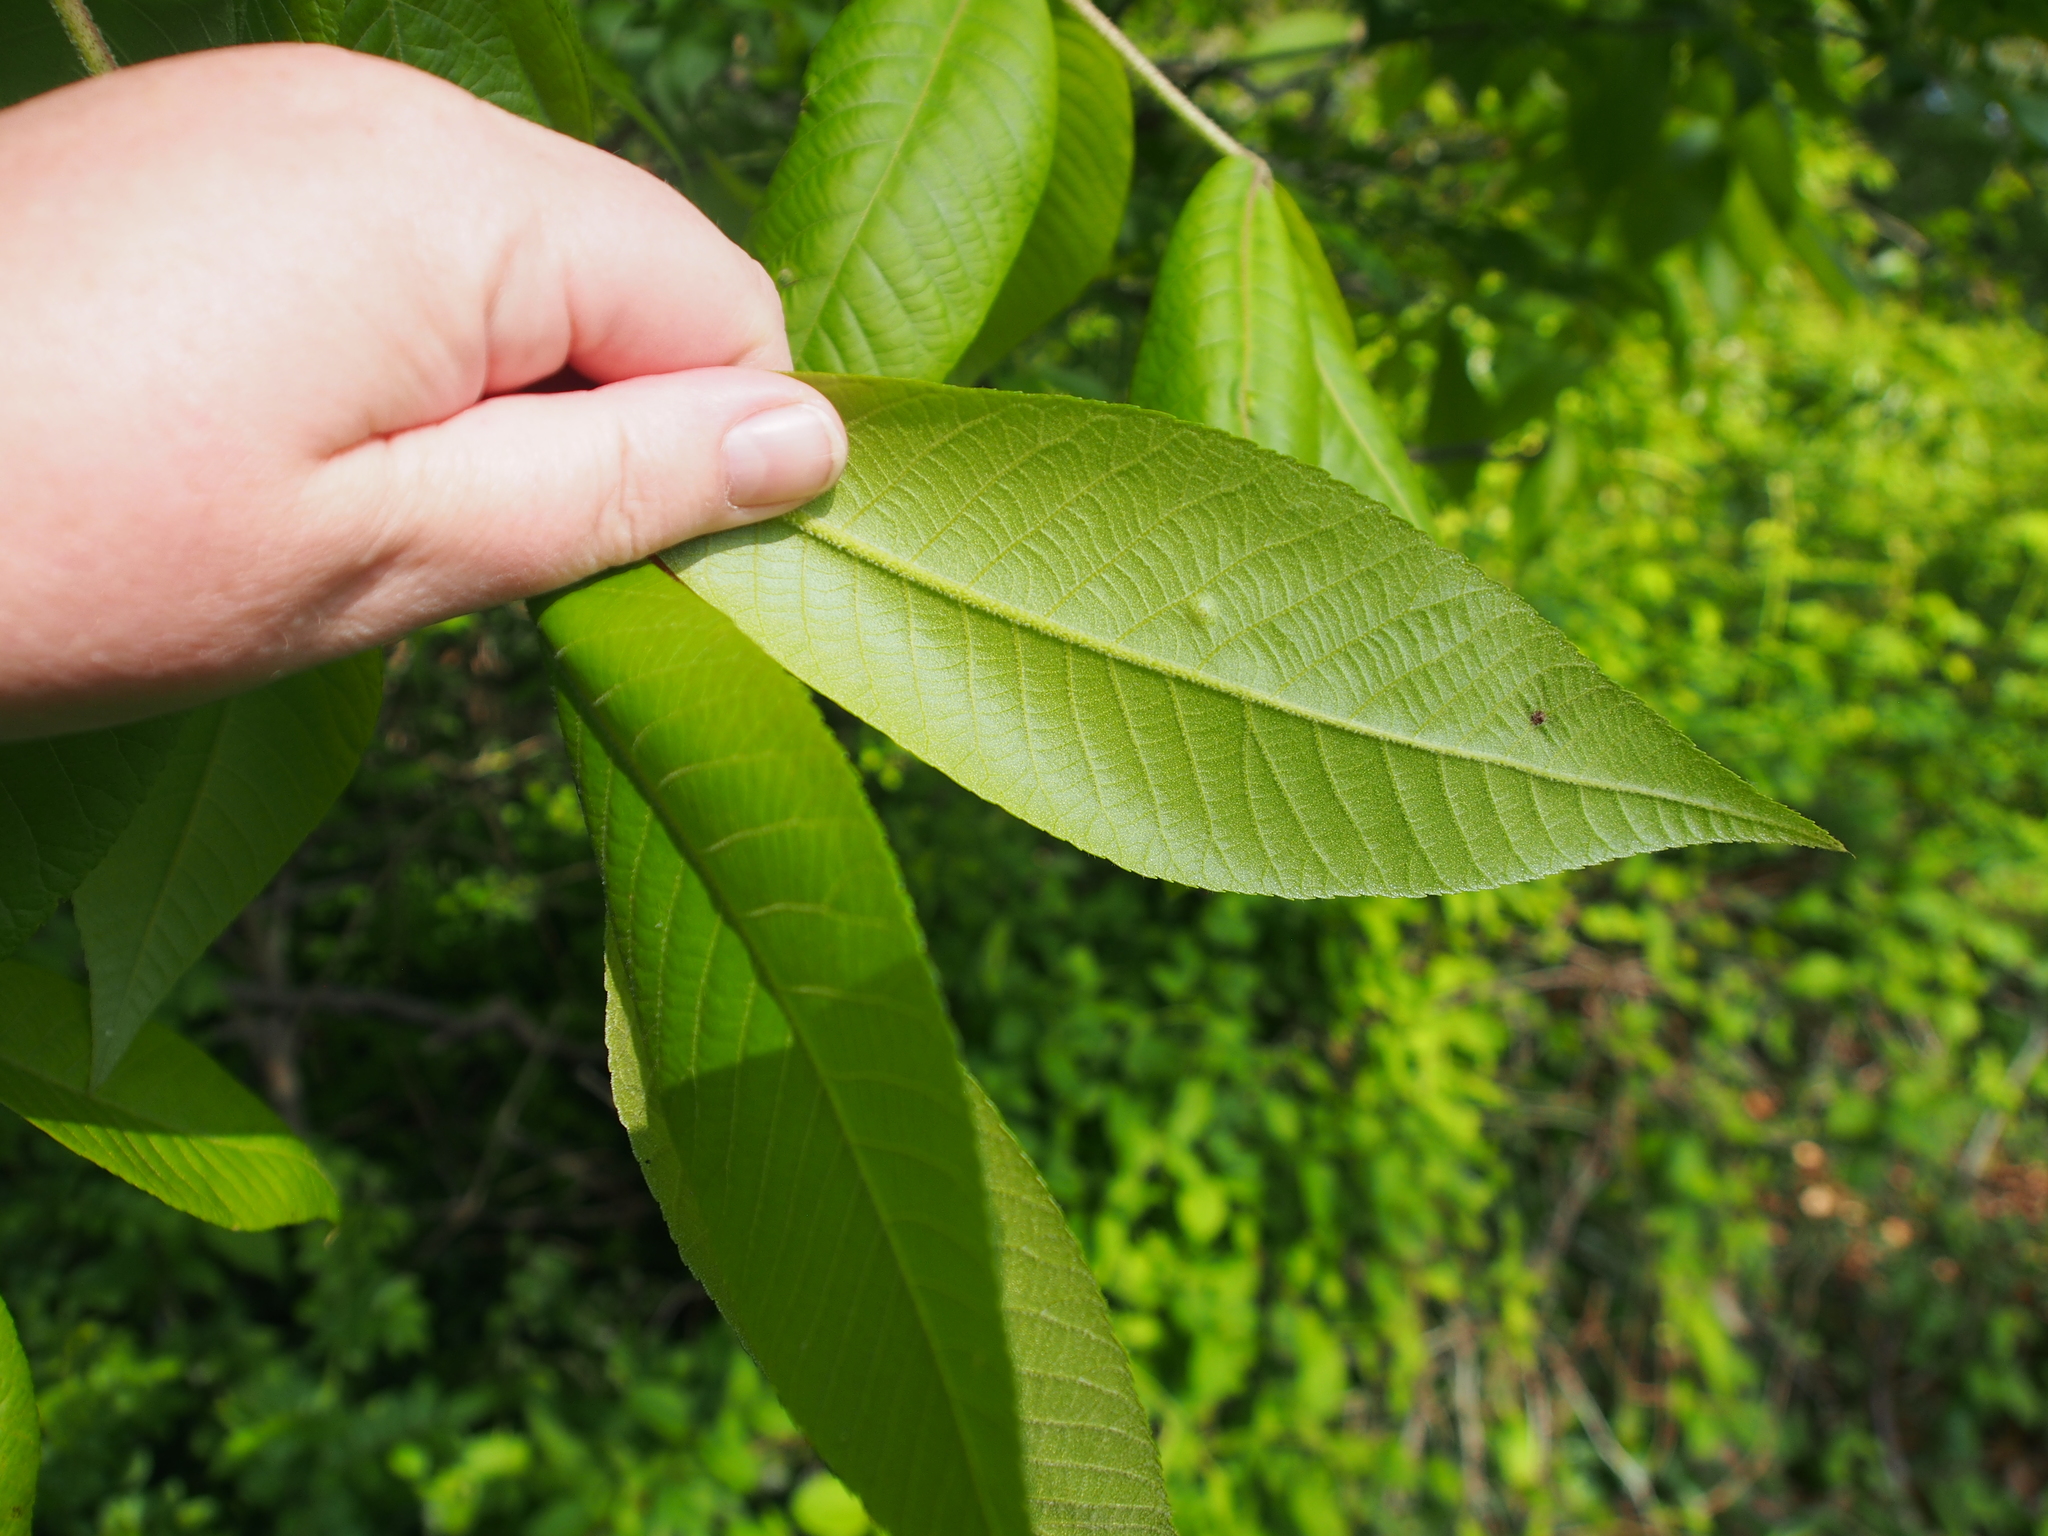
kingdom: Animalia
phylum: Arthropoda
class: Insecta
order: Hemiptera
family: Phylloxeridae
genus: Phylloxera
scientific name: Phylloxera subelliptica
